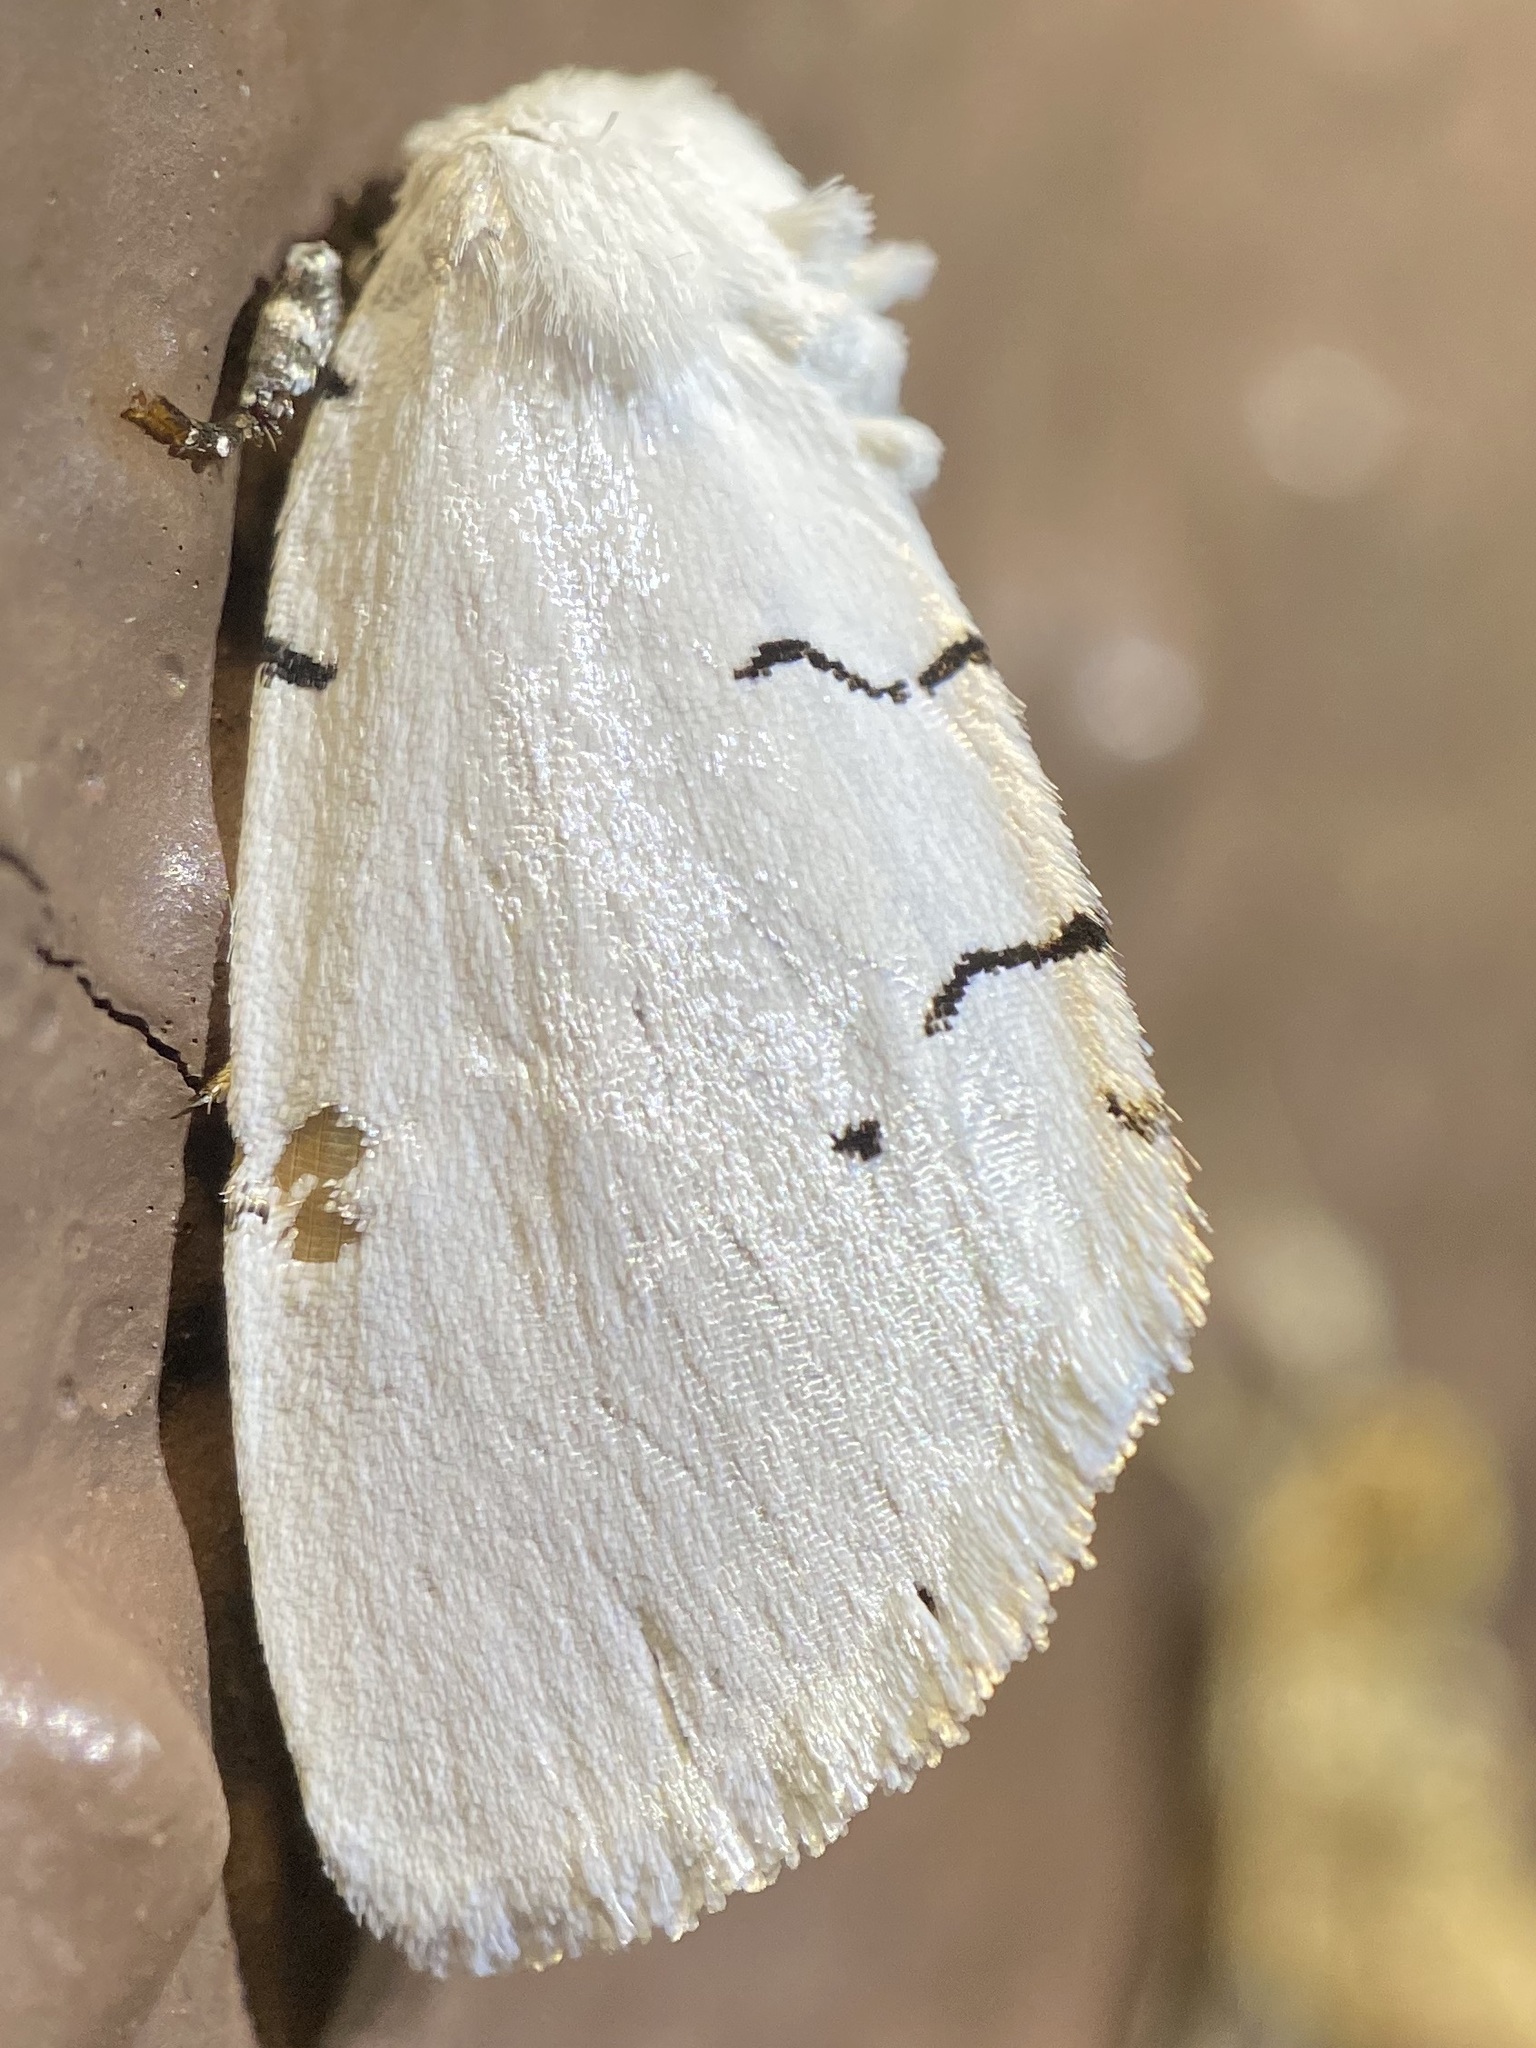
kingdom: Animalia
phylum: Arthropoda
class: Insecta
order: Lepidoptera
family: Noctuidae
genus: Hemioslaria
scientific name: Hemioslaria pima
